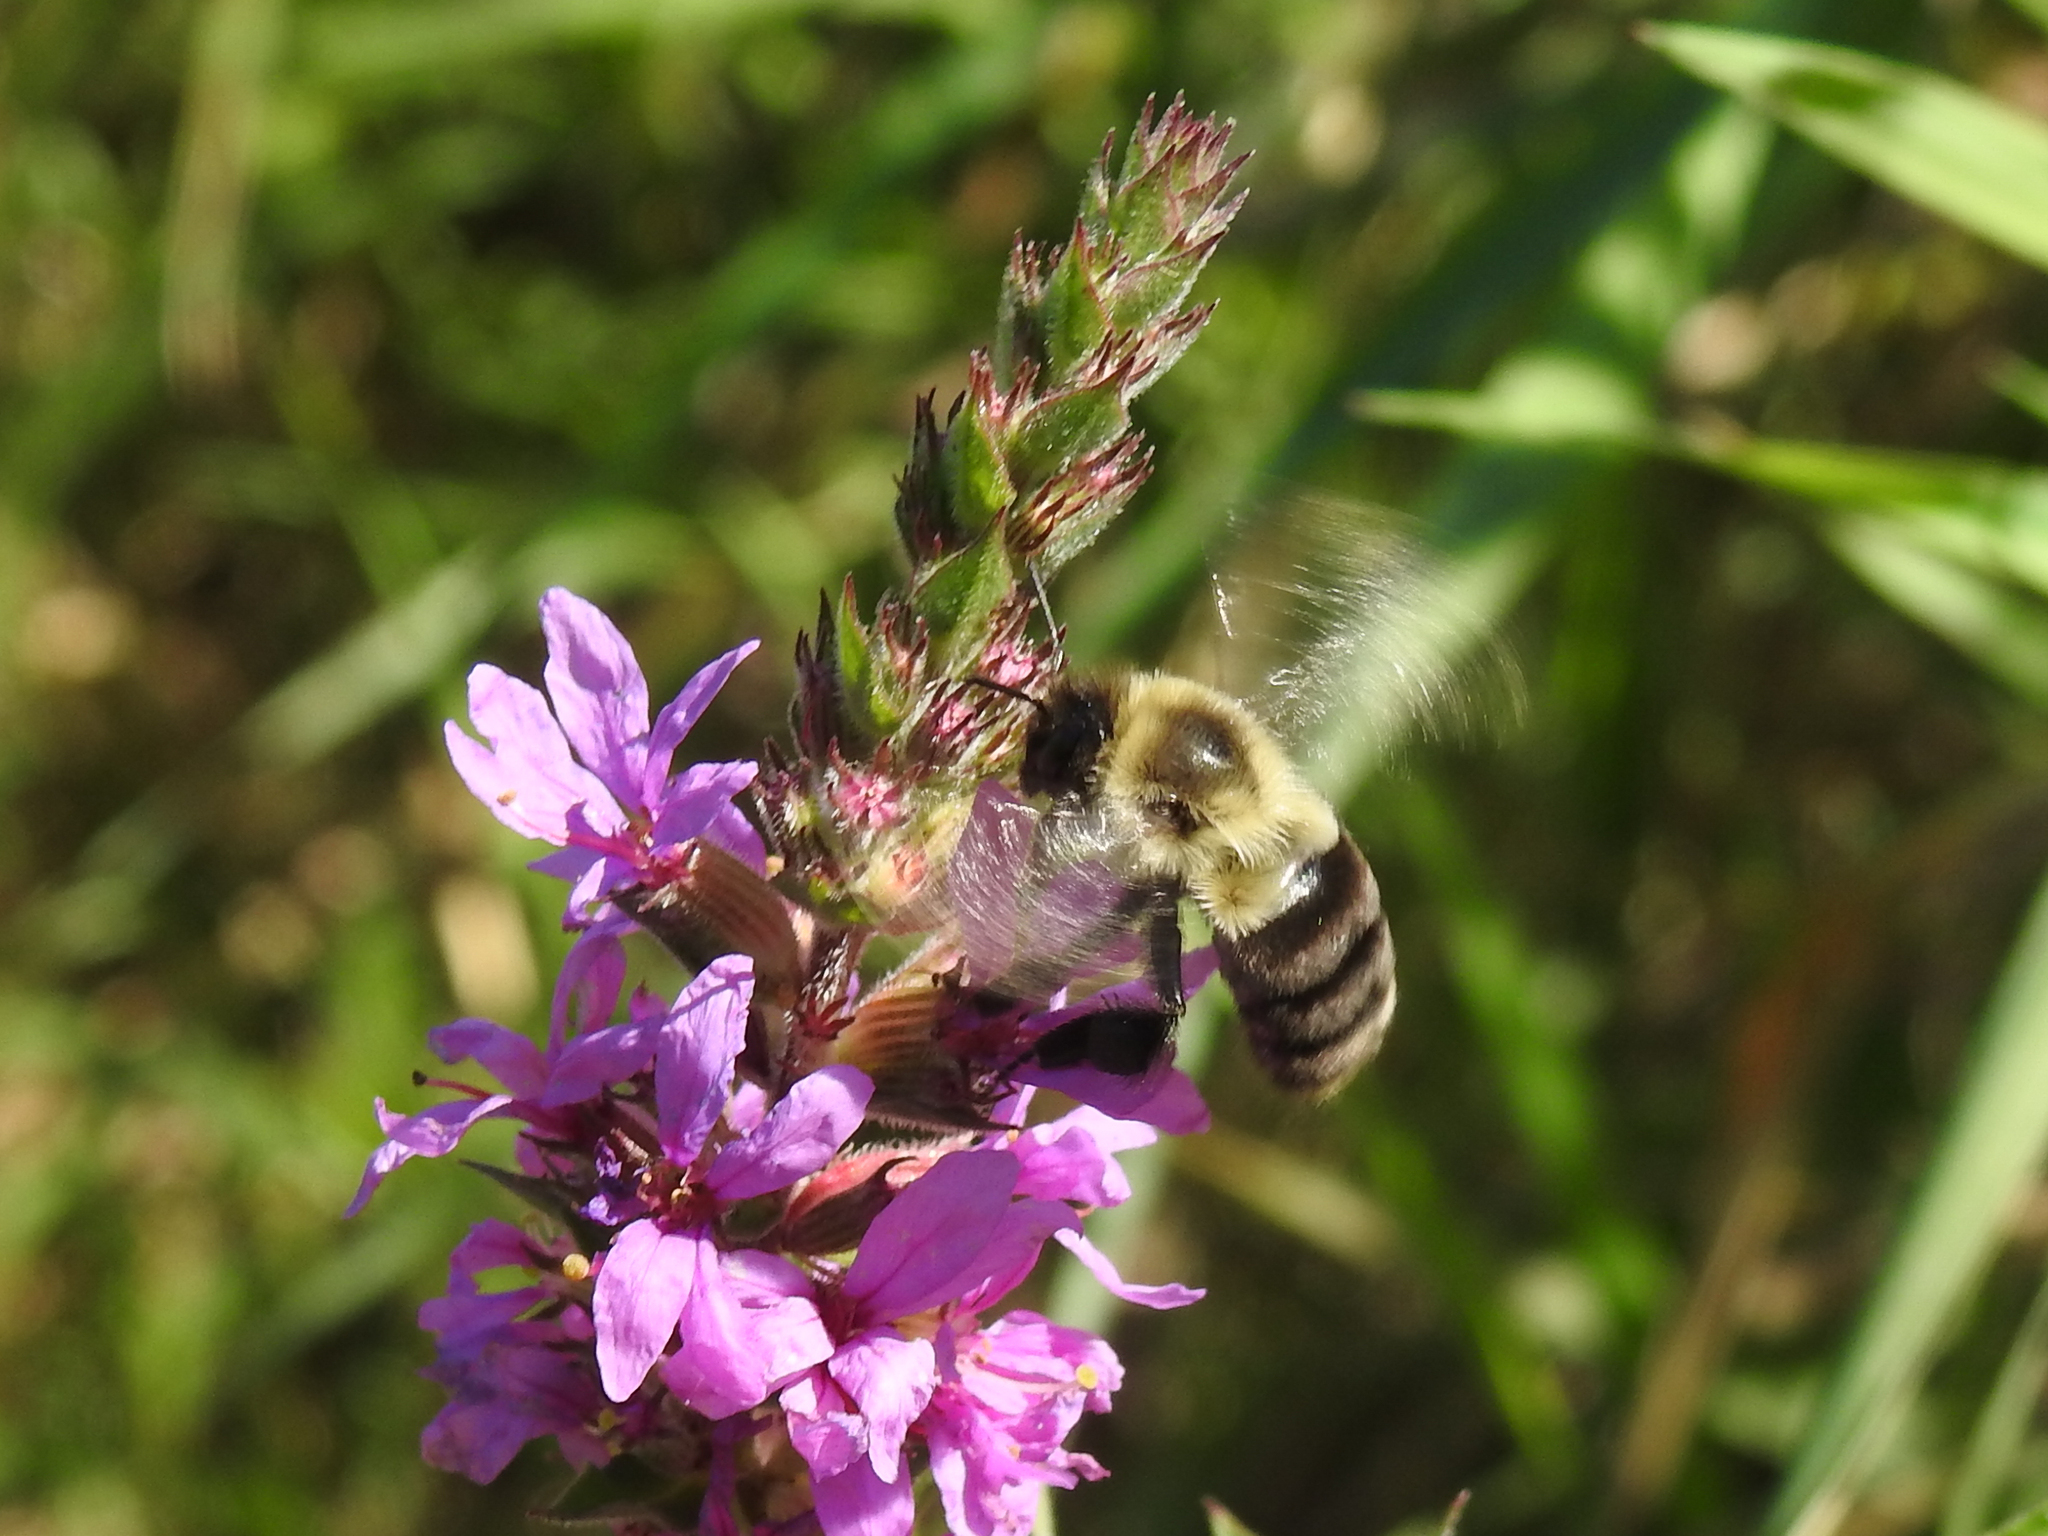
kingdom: Animalia
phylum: Arthropoda
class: Insecta
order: Hymenoptera
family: Apidae
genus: Bombus
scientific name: Bombus impatiens
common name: Common eastern bumble bee
